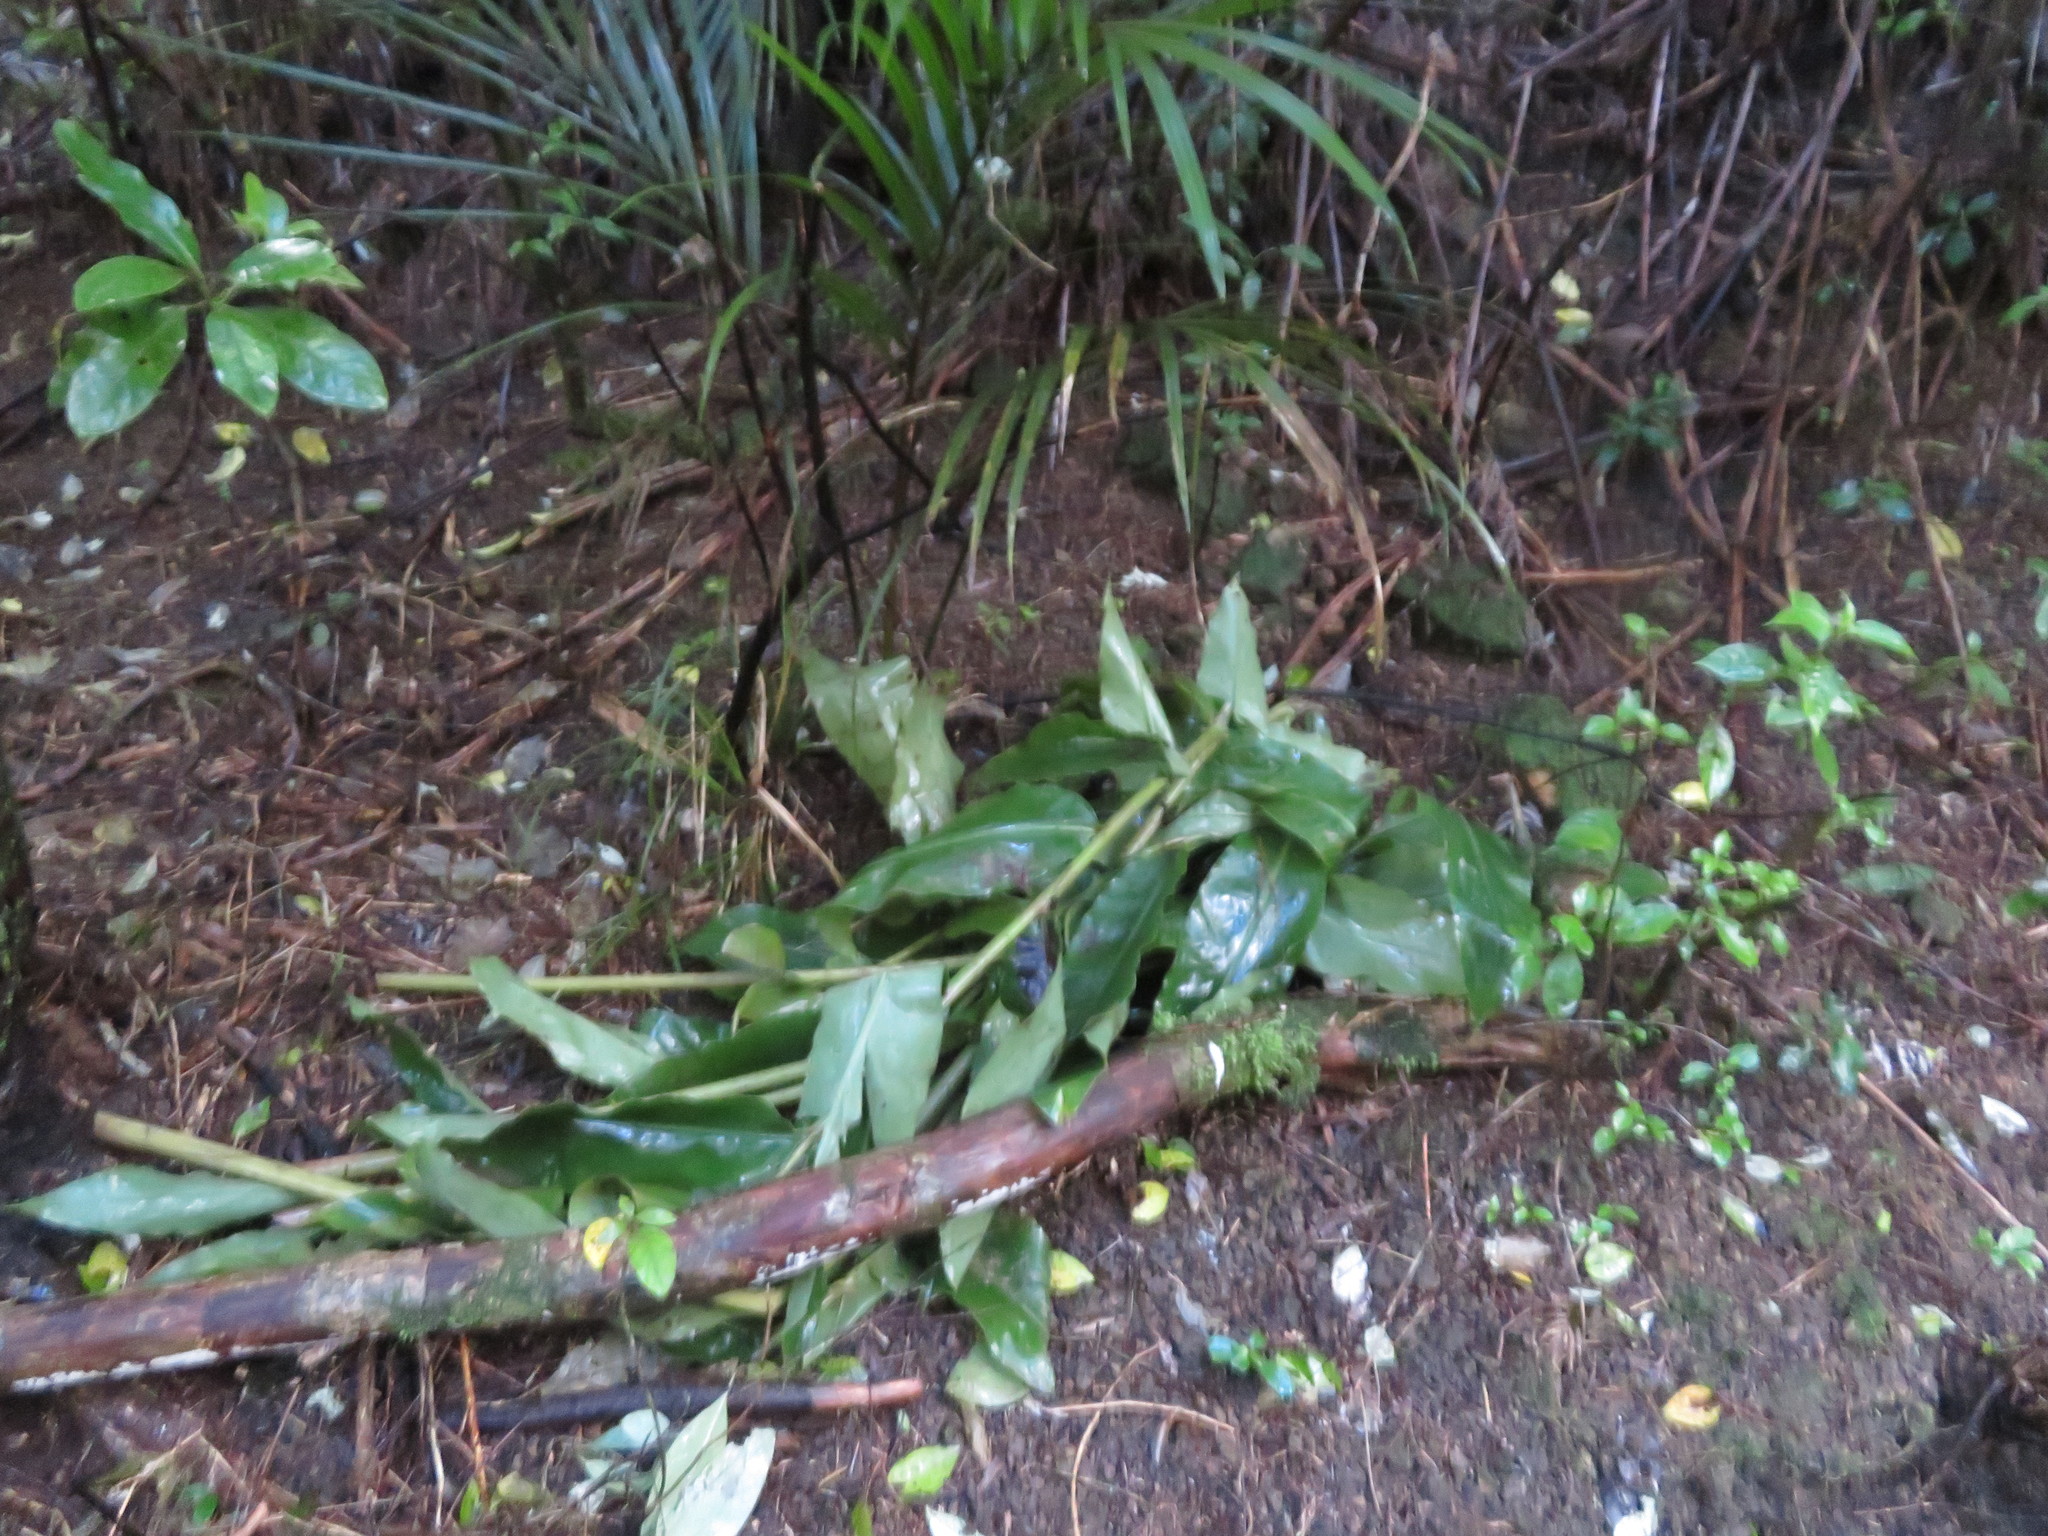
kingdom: Plantae
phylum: Tracheophyta
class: Magnoliopsida
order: Gentianales
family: Loganiaceae
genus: Geniostoma
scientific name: Geniostoma ligustrifolium
